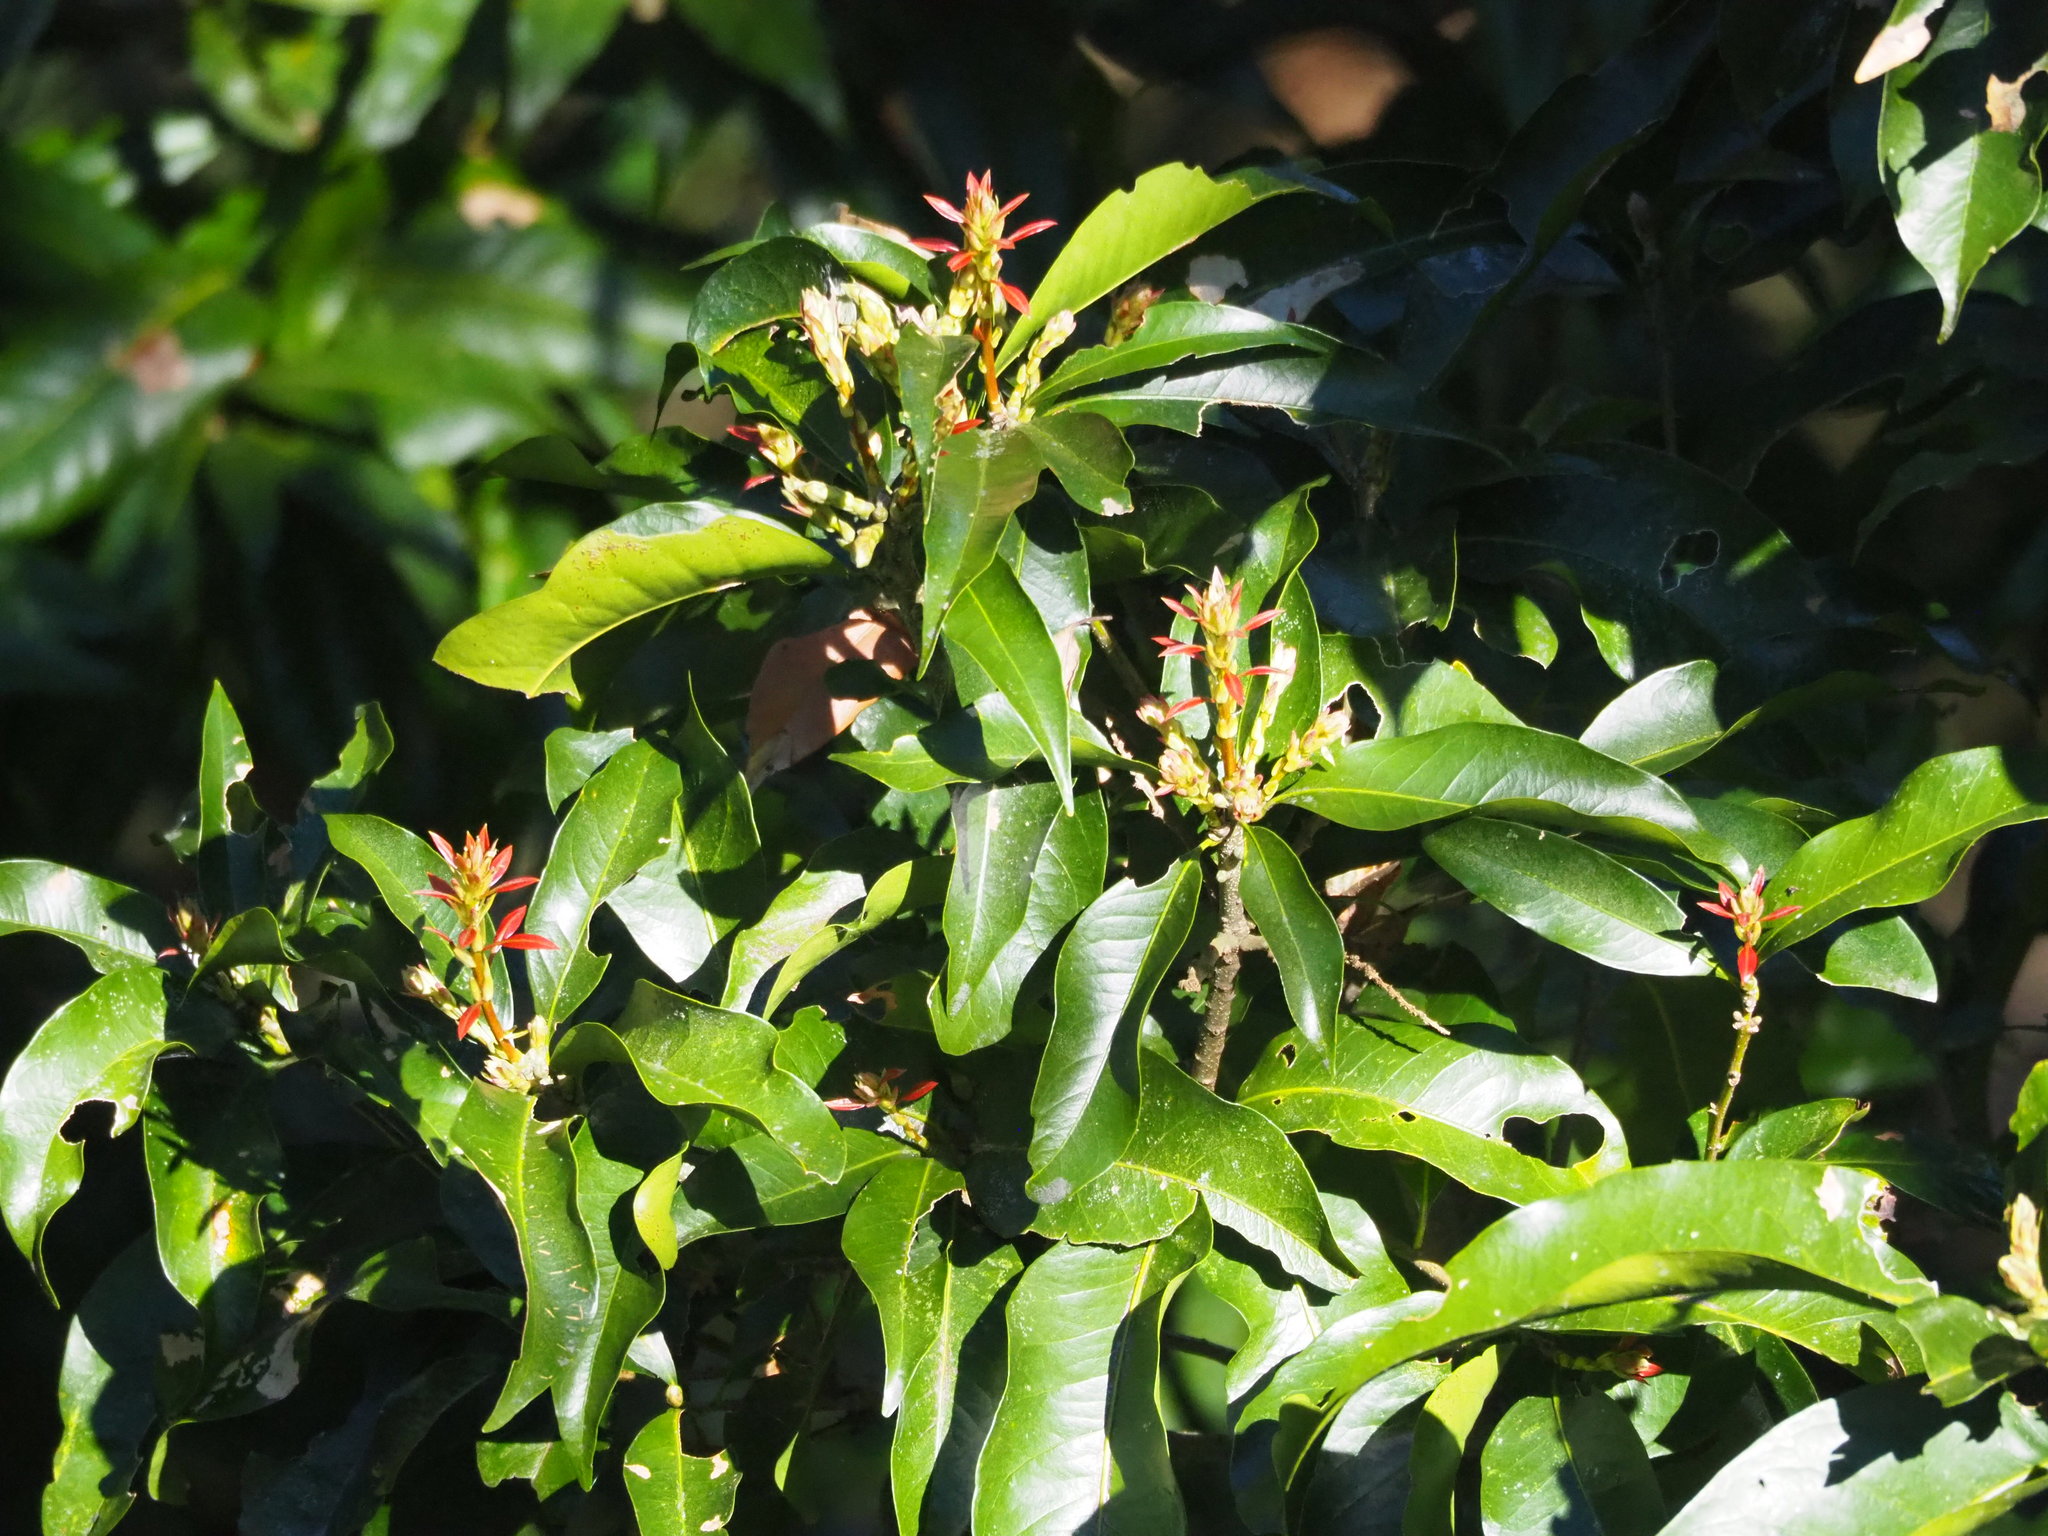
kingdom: Plantae
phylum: Tracheophyta
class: Magnoliopsida
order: Fagales
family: Fagaceae
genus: Lithocarpus
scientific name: Lithocarpus hancei
